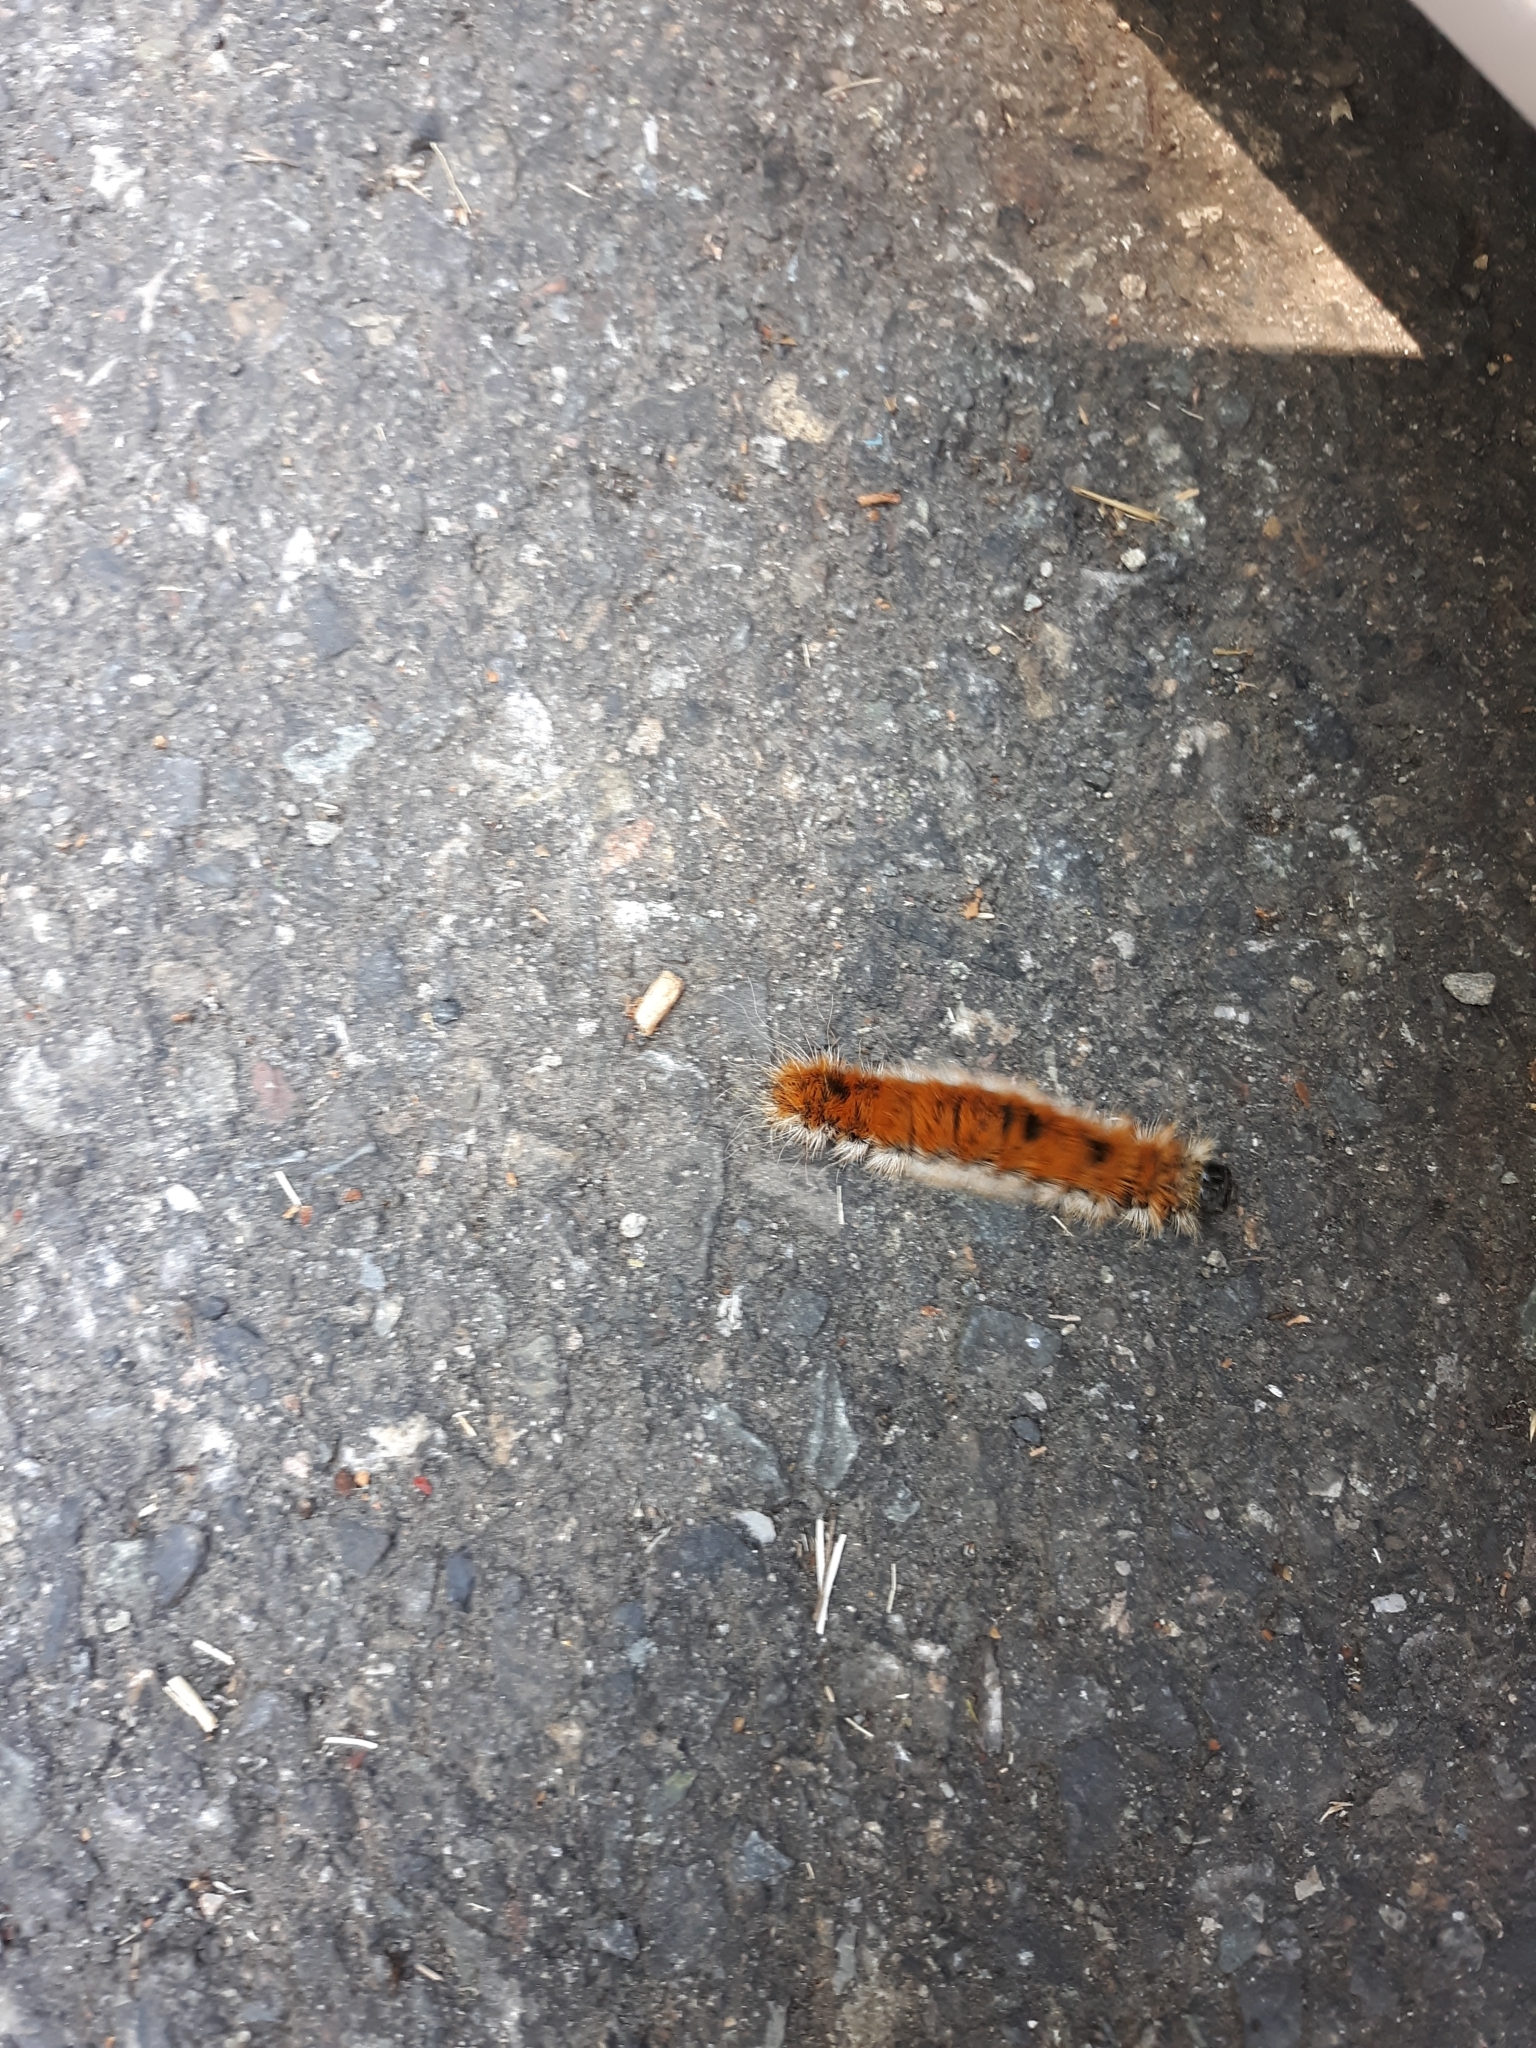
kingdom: Animalia
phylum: Arthropoda
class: Insecta
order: Lepidoptera
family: Noctuidae
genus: Acronicta
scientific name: Acronicta insita
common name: Large gray dagger
